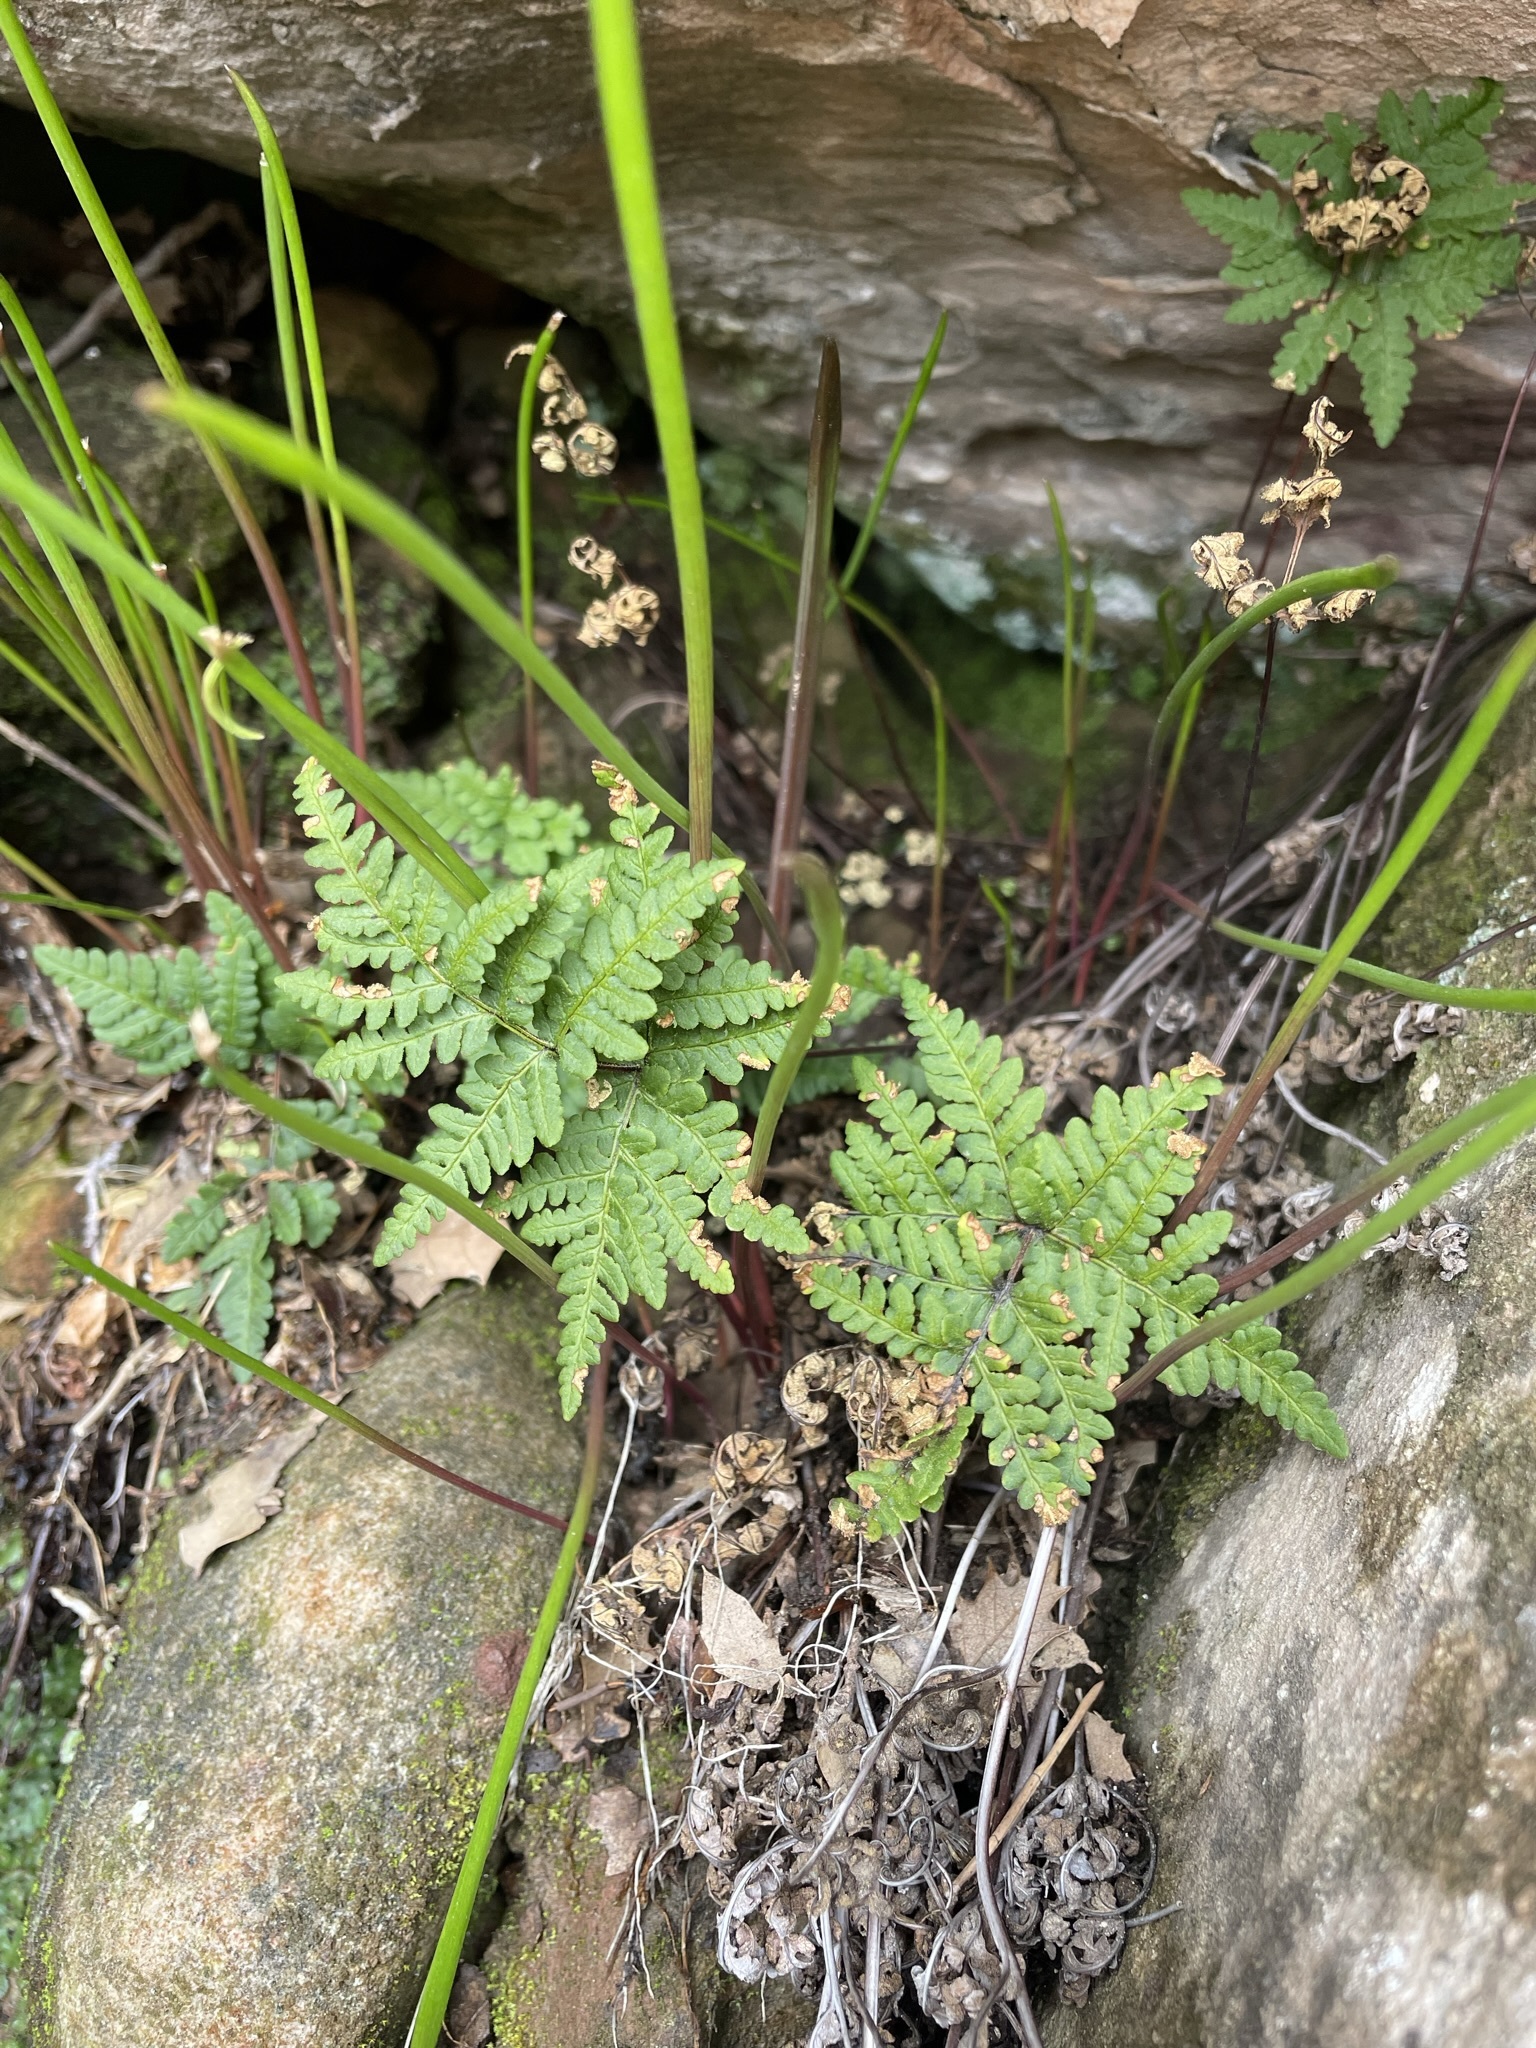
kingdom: Plantae
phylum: Tracheophyta
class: Polypodiopsida
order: Polypodiales
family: Pteridaceae
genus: Pentagramma
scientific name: Pentagramma triangularis
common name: Gold fern
